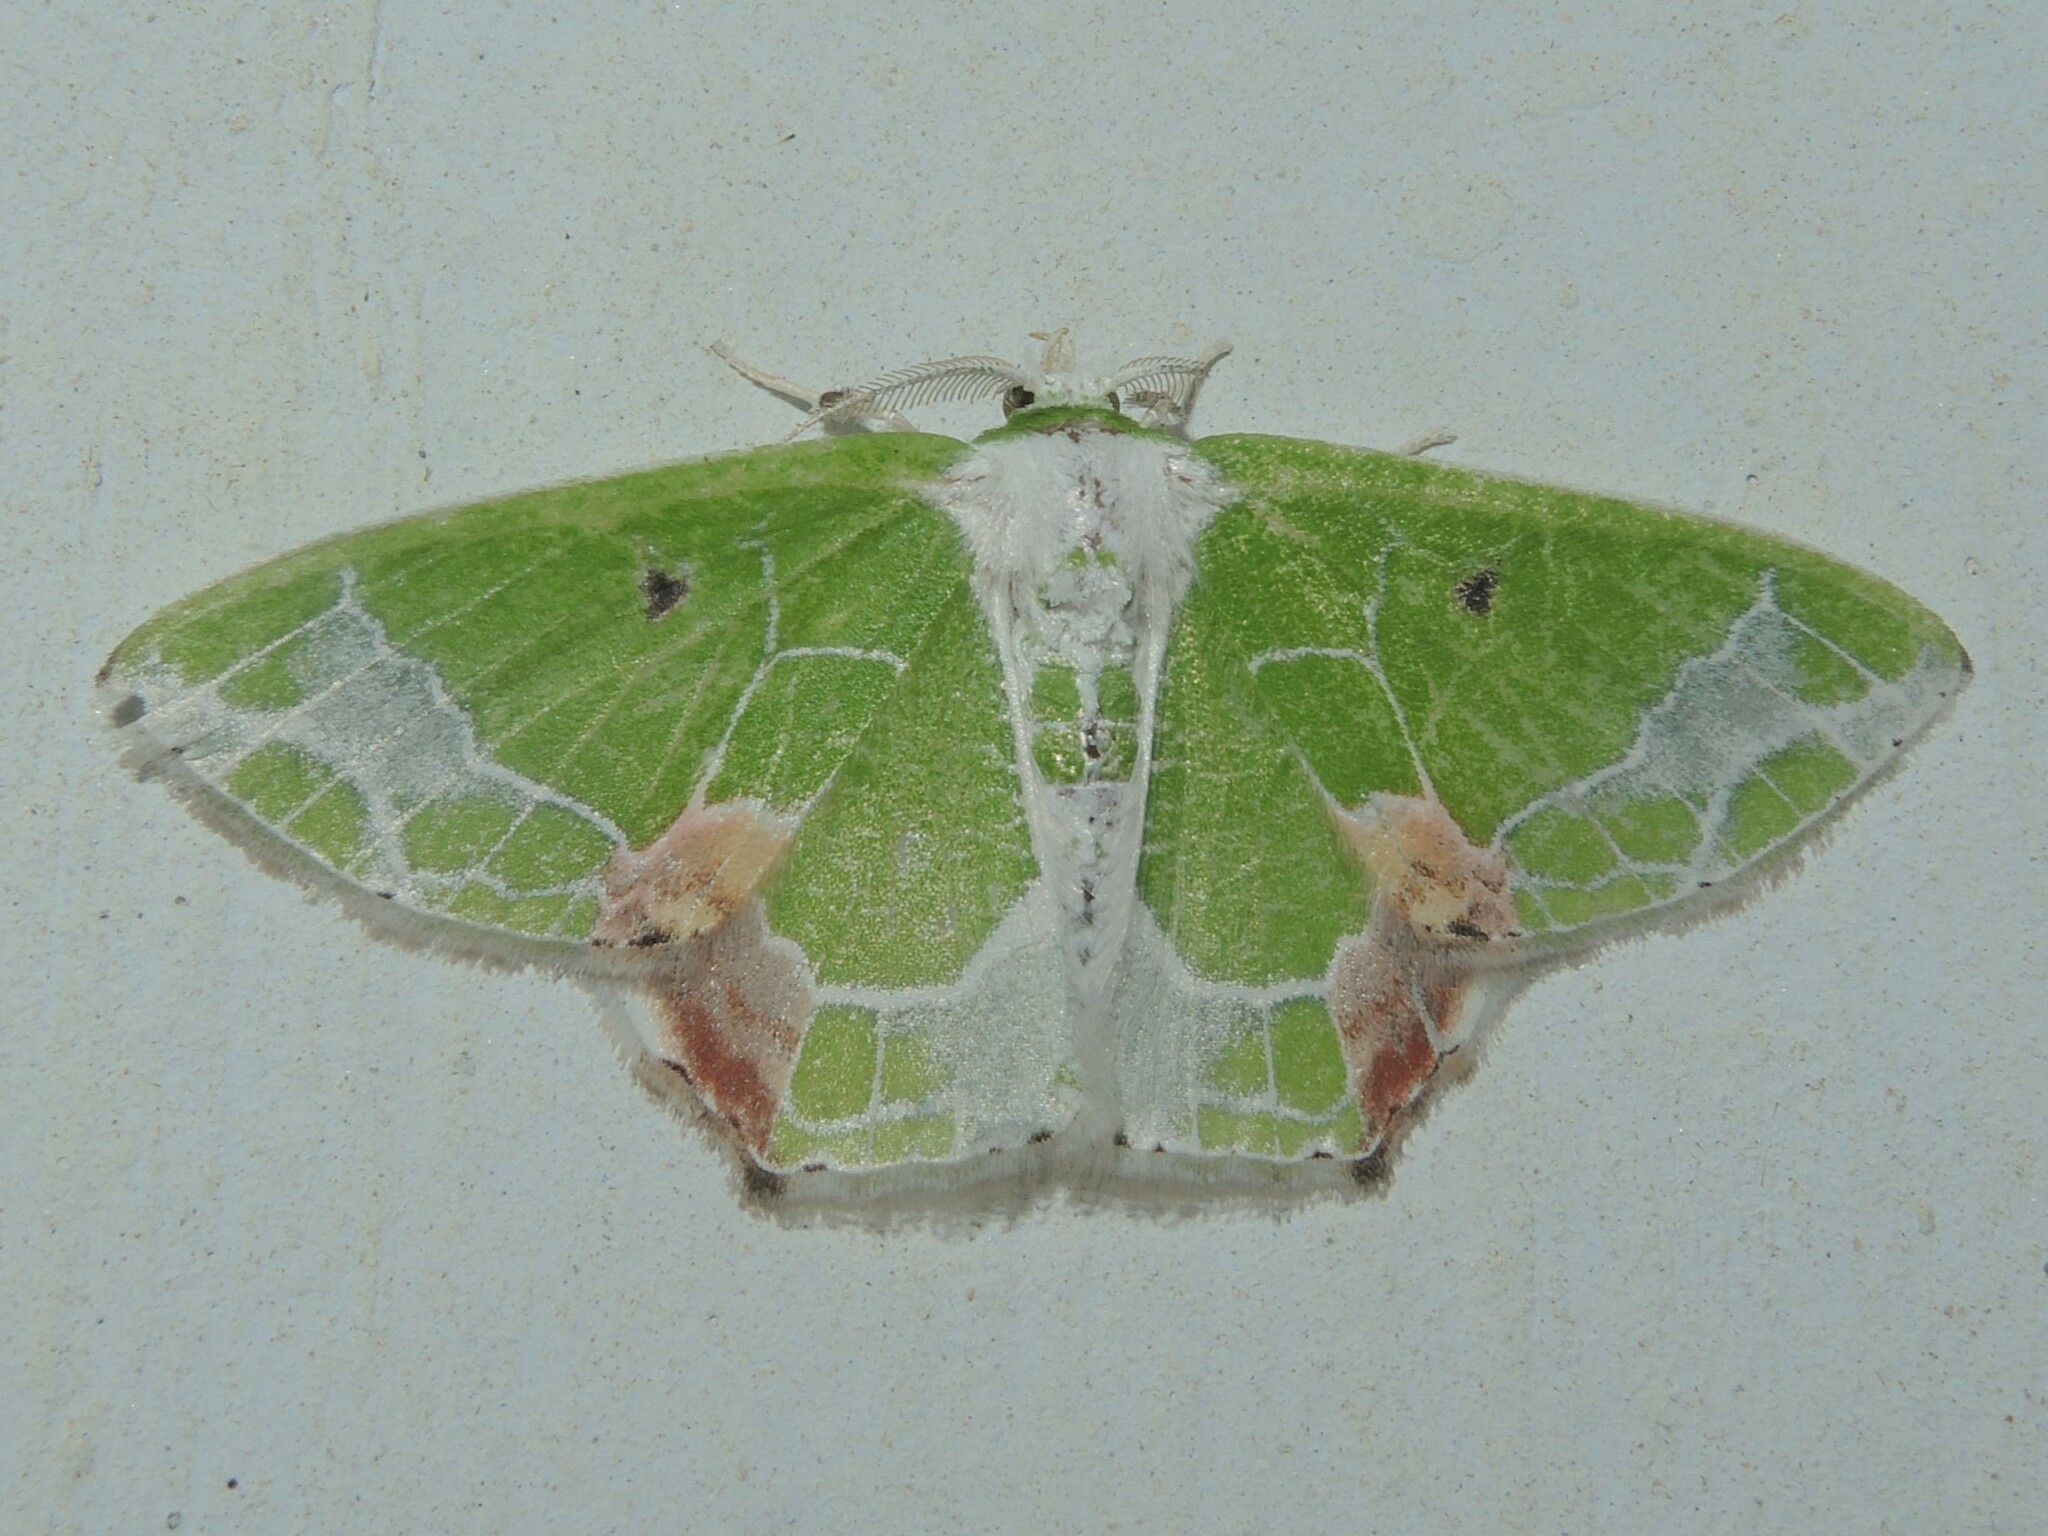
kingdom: Animalia
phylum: Arthropoda
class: Insecta
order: Lepidoptera
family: Geometridae
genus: Protuliocnemis
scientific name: Protuliocnemis partita
